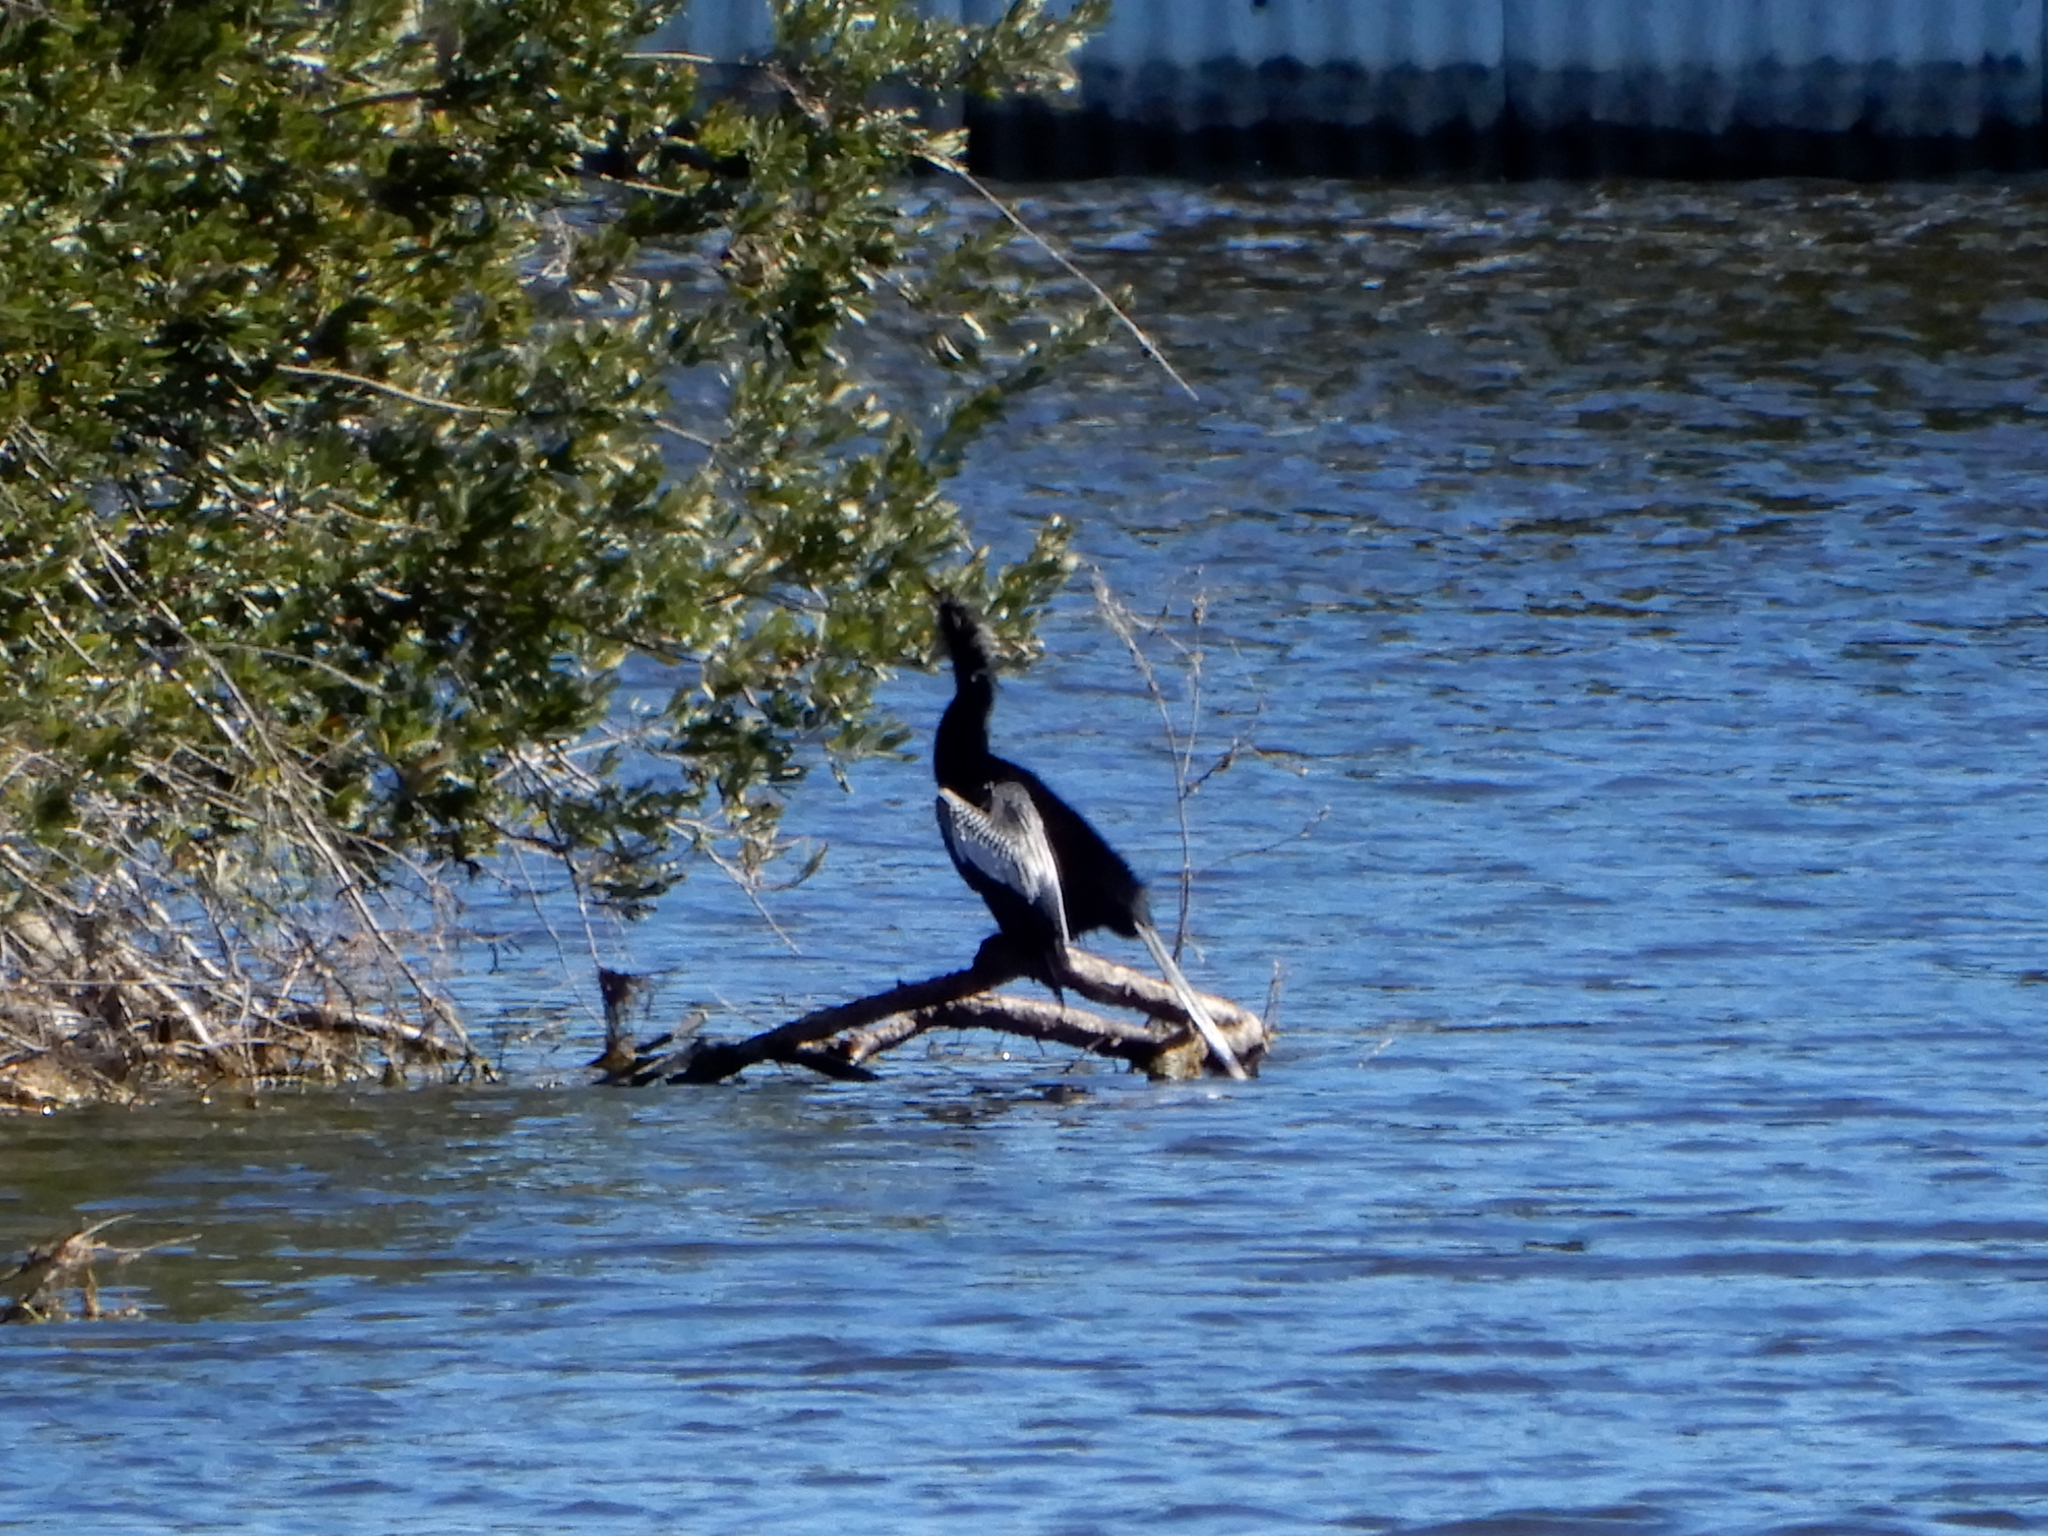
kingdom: Animalia
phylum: Chordata
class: Aves
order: Suliformes
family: Anhingidae
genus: Anhinga
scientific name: Anhinga anhinga
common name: Anhinga
